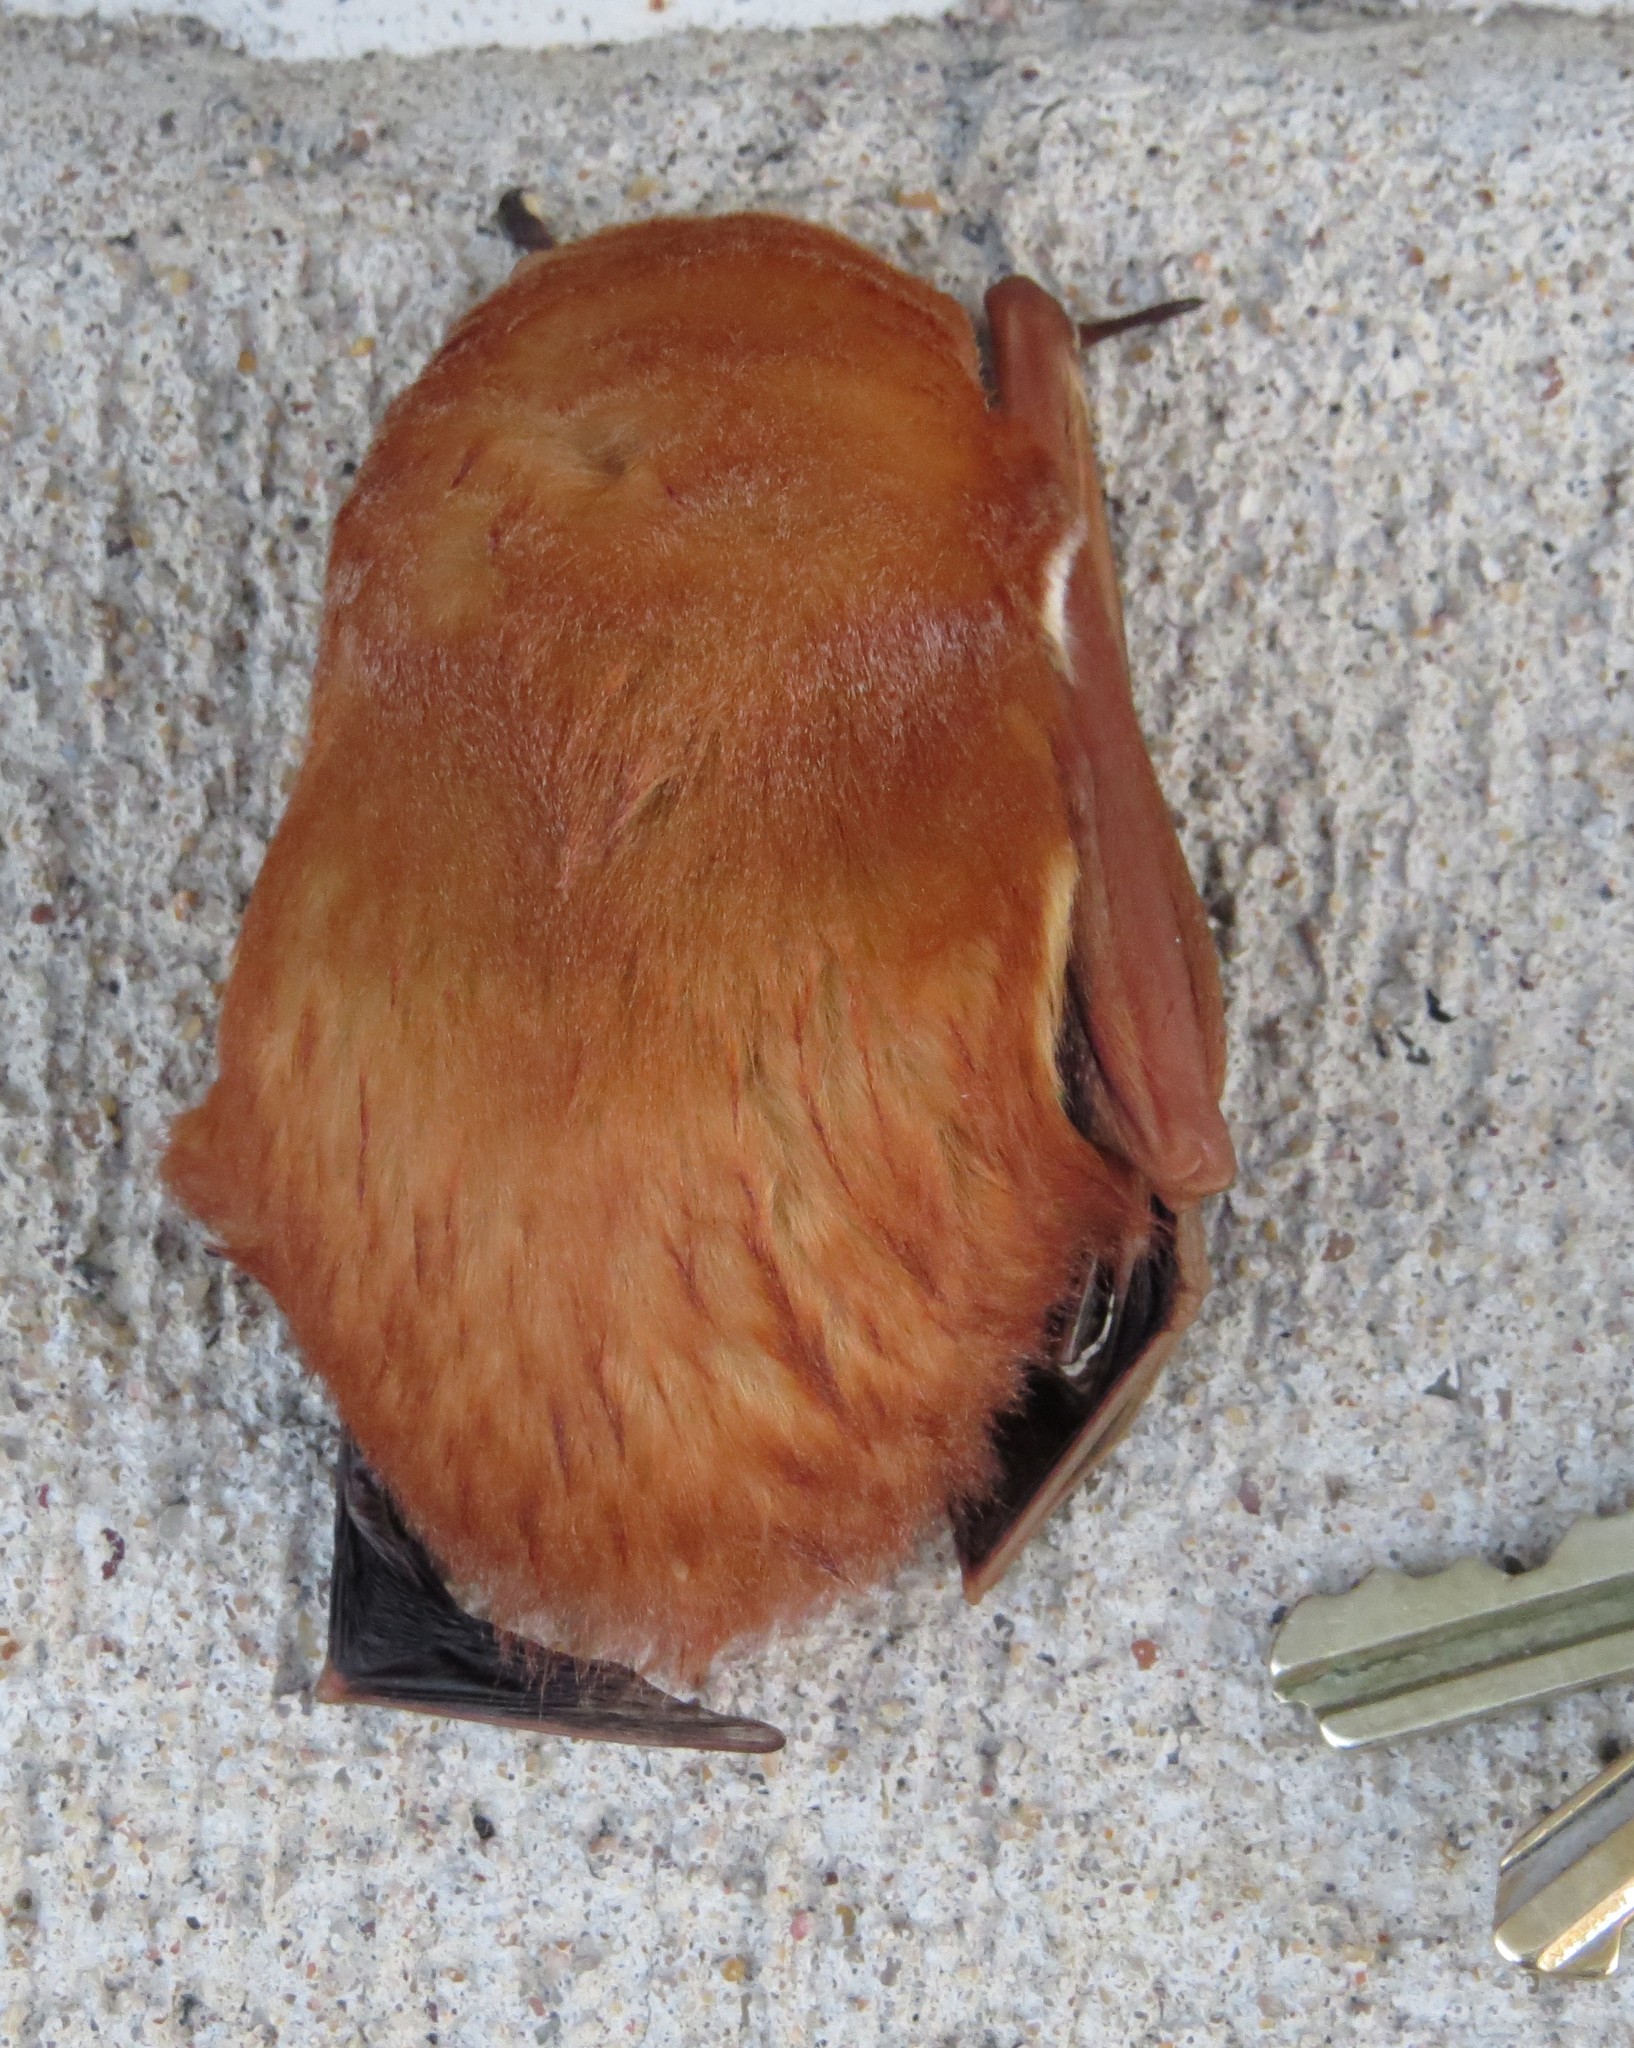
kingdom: Animalia
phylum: Chordata
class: Mammalia
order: Chiroptera
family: Vespertilionidae
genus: Lasiurus
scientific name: Lasiurus borealis
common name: Eastern red bat
